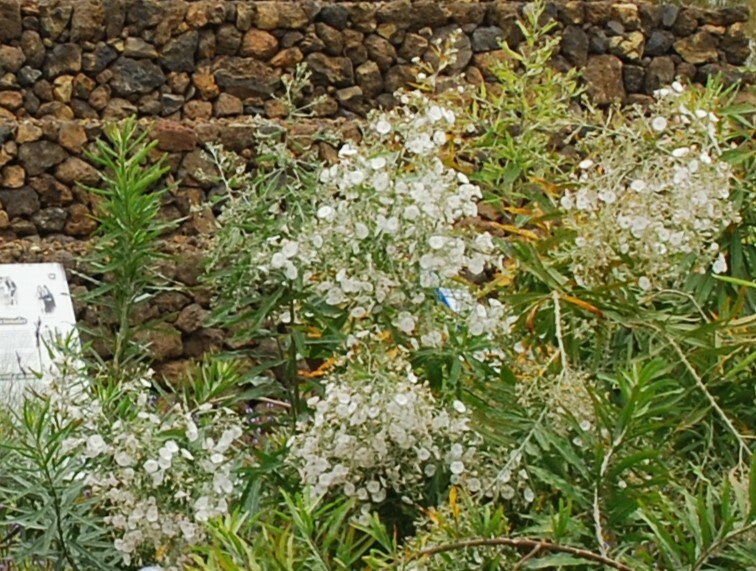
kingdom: Plantae
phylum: Tracheophyta
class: Magnoliopsida
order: Solanales
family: Convolvulaceae
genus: Convolvulus
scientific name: Convolvulus floridus
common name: Guadil
